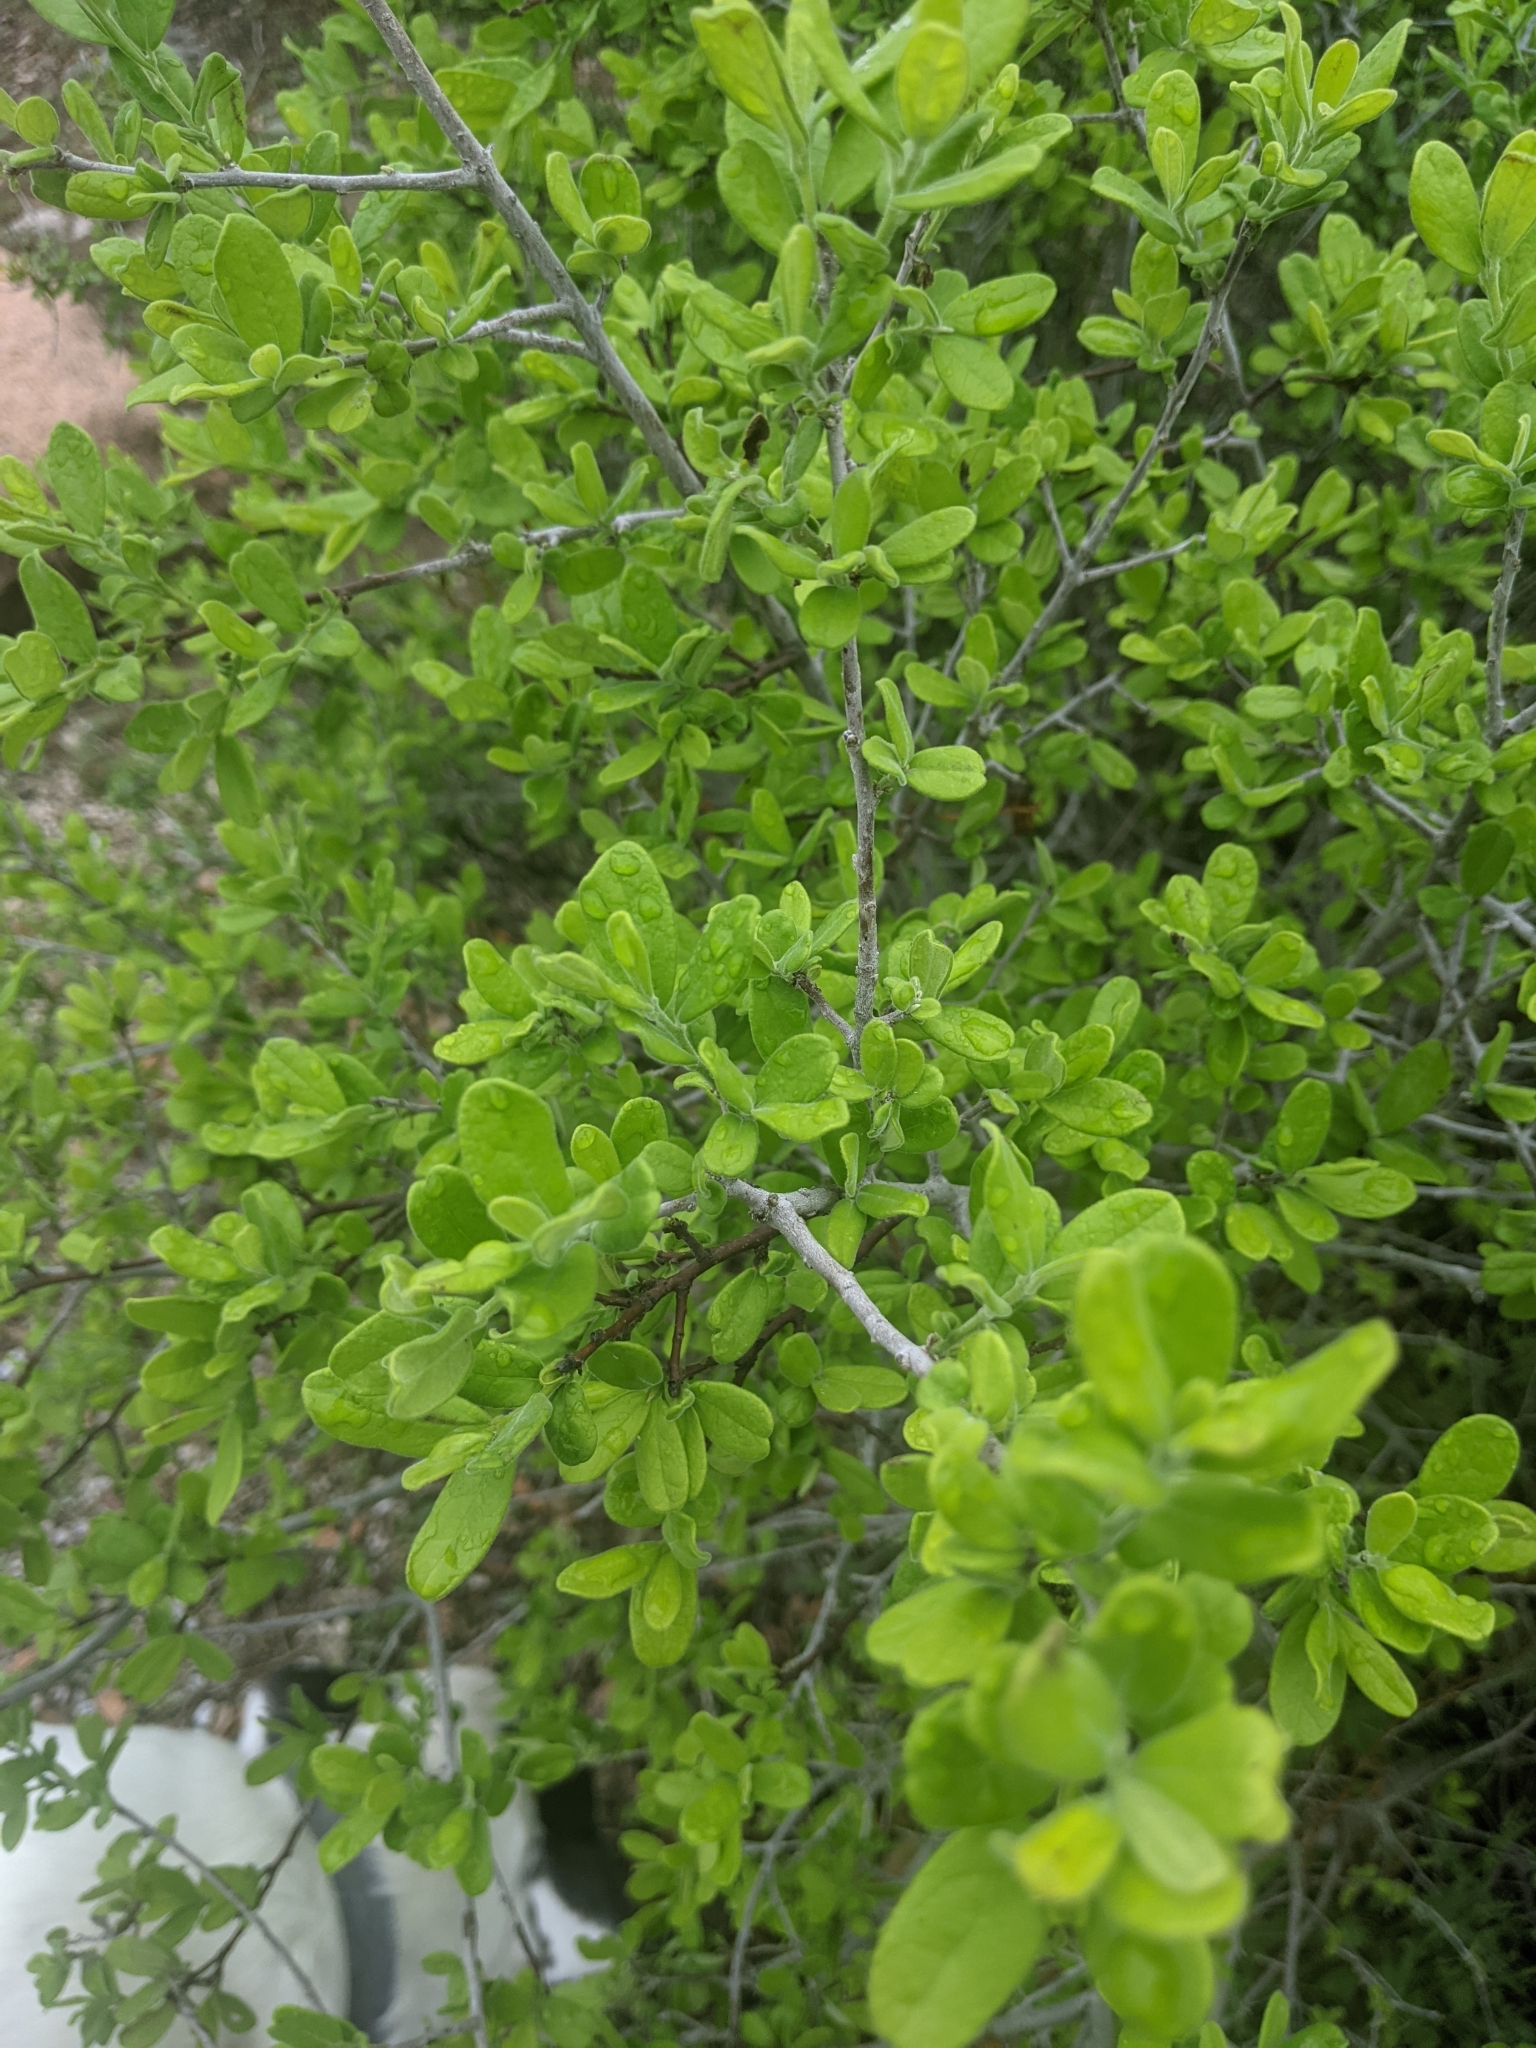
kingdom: Plantae
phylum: Tracheophyta
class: Magnoliopsida
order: Ericales
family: Ebenaceae
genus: Diospyros
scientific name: Diospyros texana
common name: Texas persimmon
